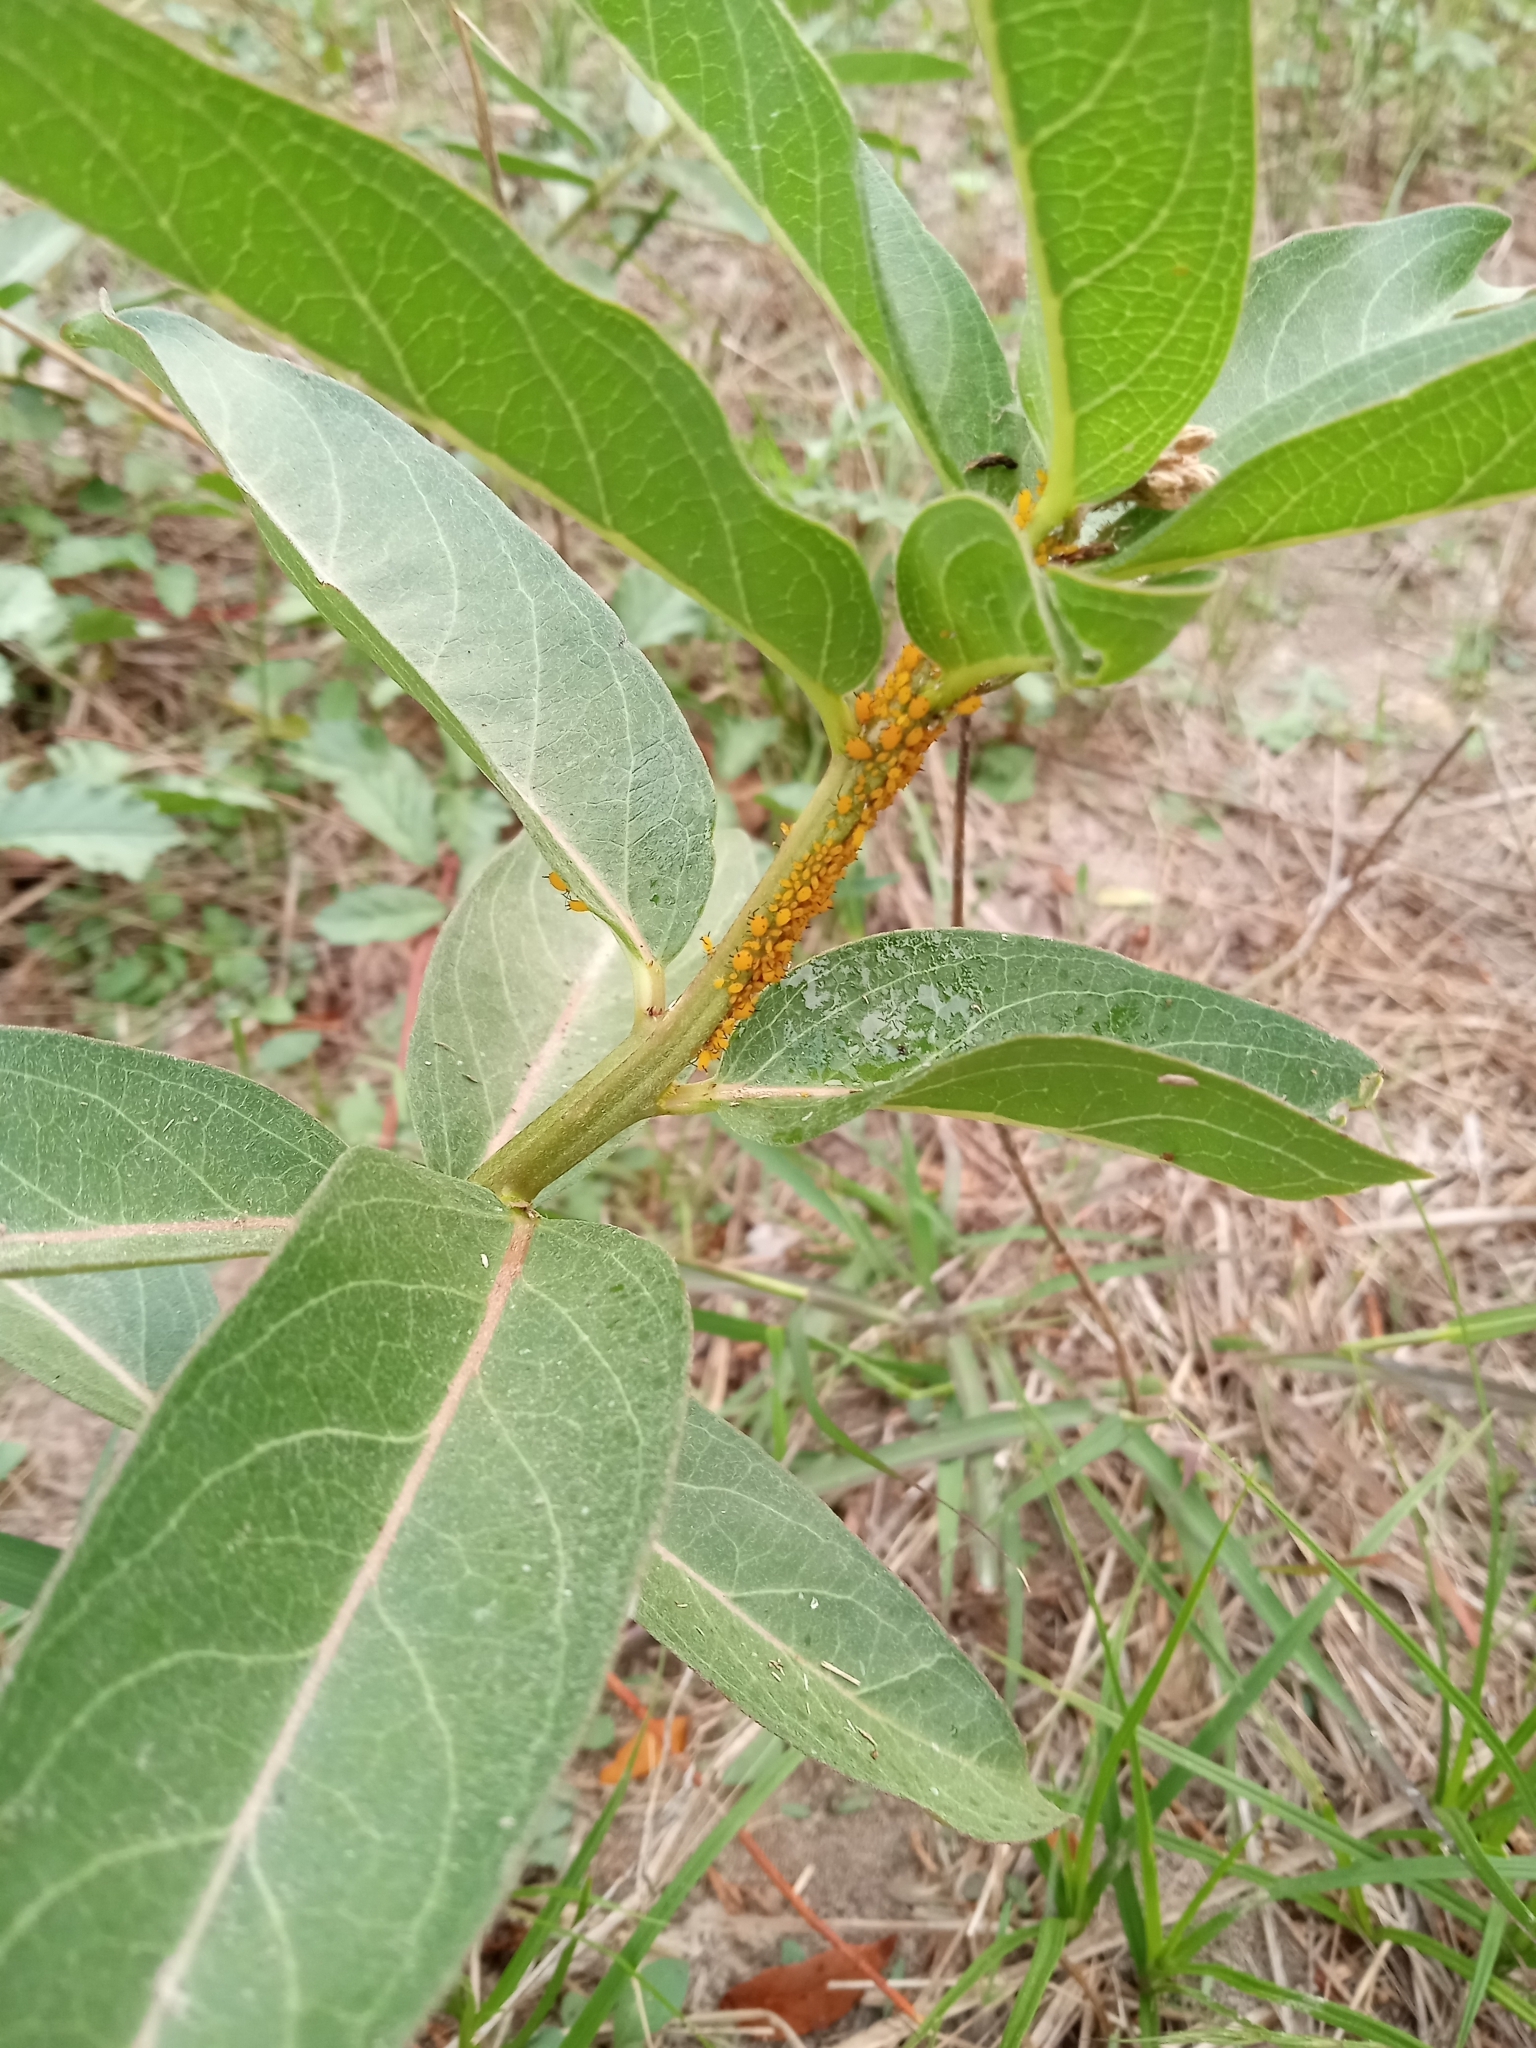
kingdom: Animalia
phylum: Arthropoda
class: Insecta
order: Hemiptera
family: Aphididae
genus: Aphis
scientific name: Aphis nerii
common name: Oleander aphid
